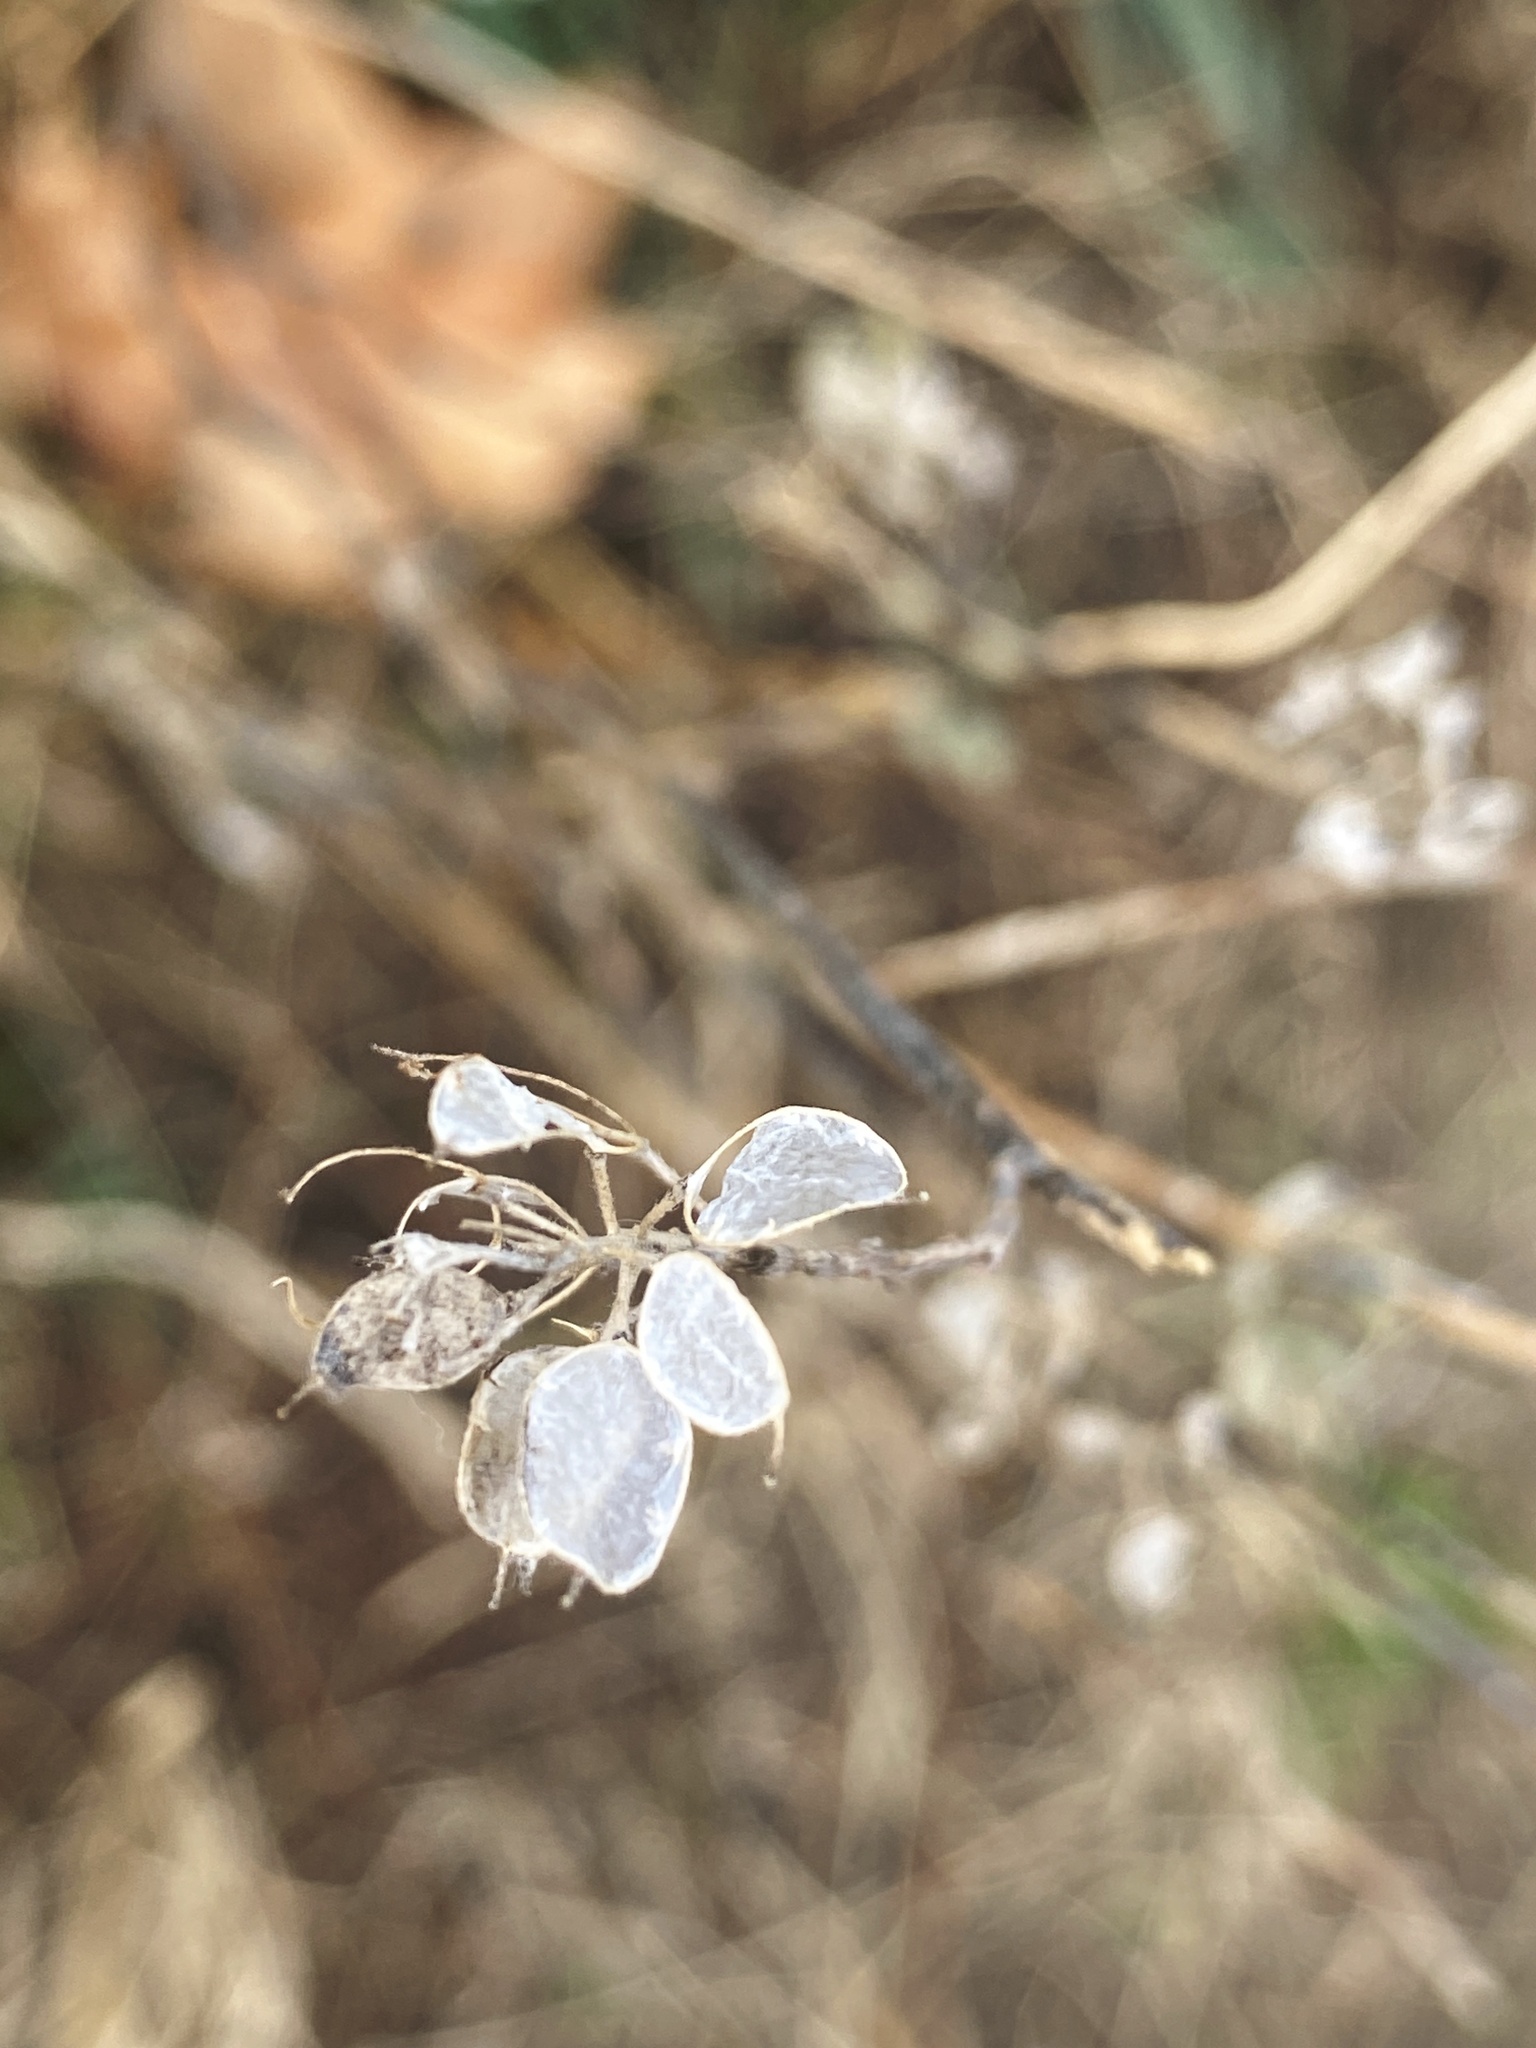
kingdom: Plantae
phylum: Tracheophyta
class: Magnoliopsida
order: Brassicales
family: Brassicaceae
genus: Berteroa
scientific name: Berteroa incana
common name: Hoary alison
